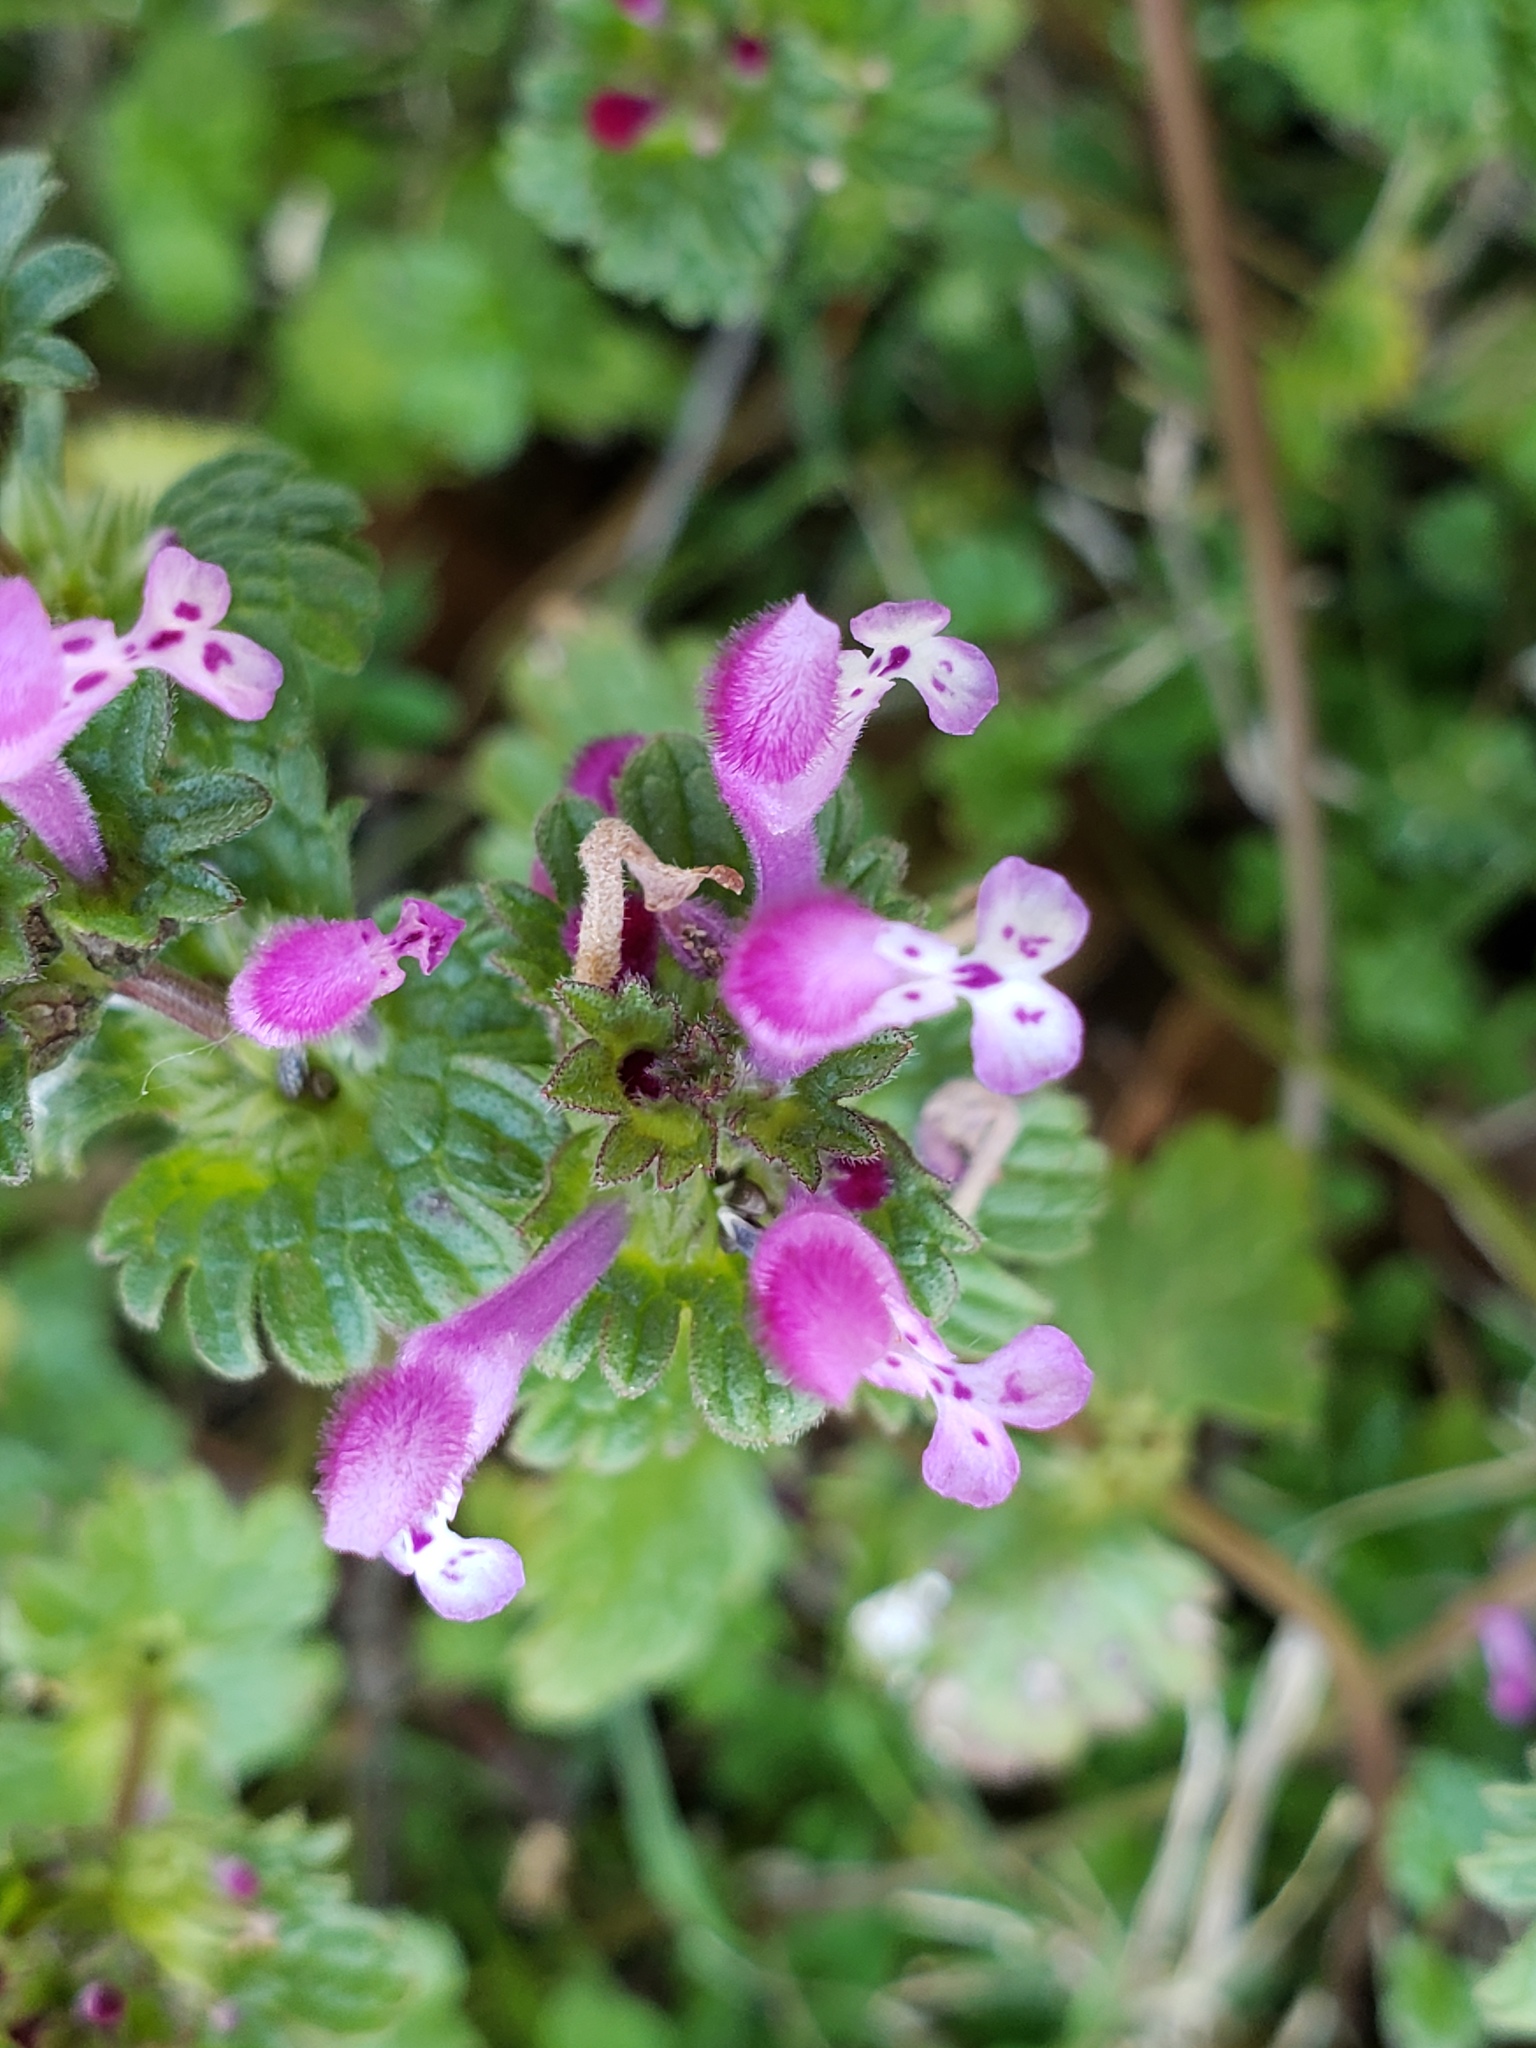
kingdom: Plantae
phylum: Tracheophyta
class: Magnoliopsida
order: Lamiales
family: Lamiaceae
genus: Lamium
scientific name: Lamium amplexicaule
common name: Henbit dead-nettle
